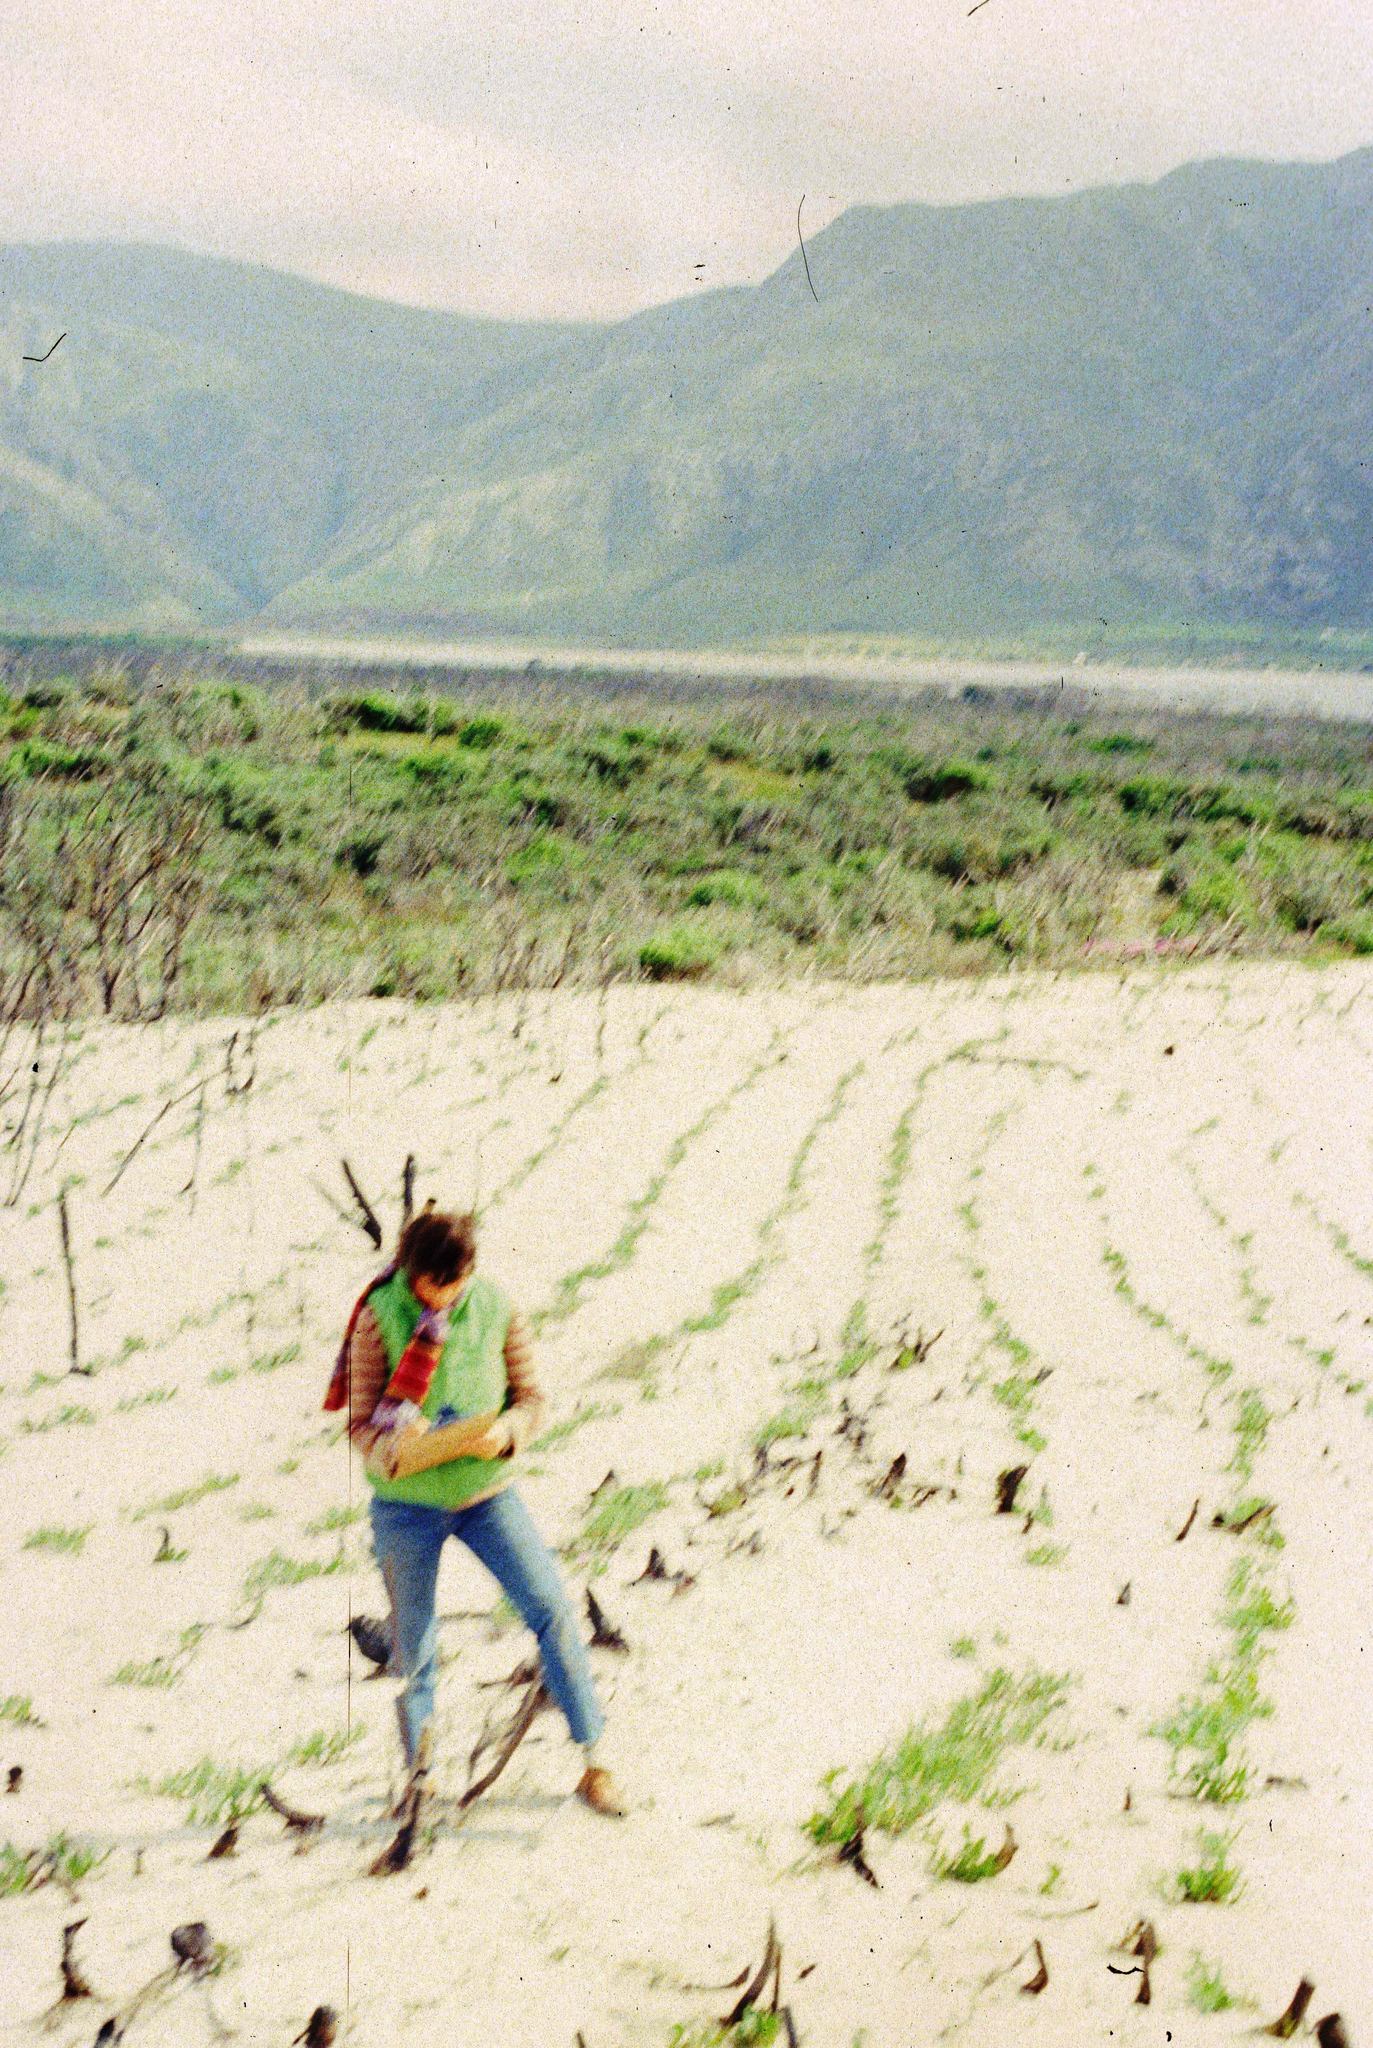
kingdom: Plantae
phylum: Tracheophyta
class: Magnoliopsida
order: Fabales
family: Fabaceae
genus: Acacia
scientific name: Acacia cyclops
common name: Coastal wattle
